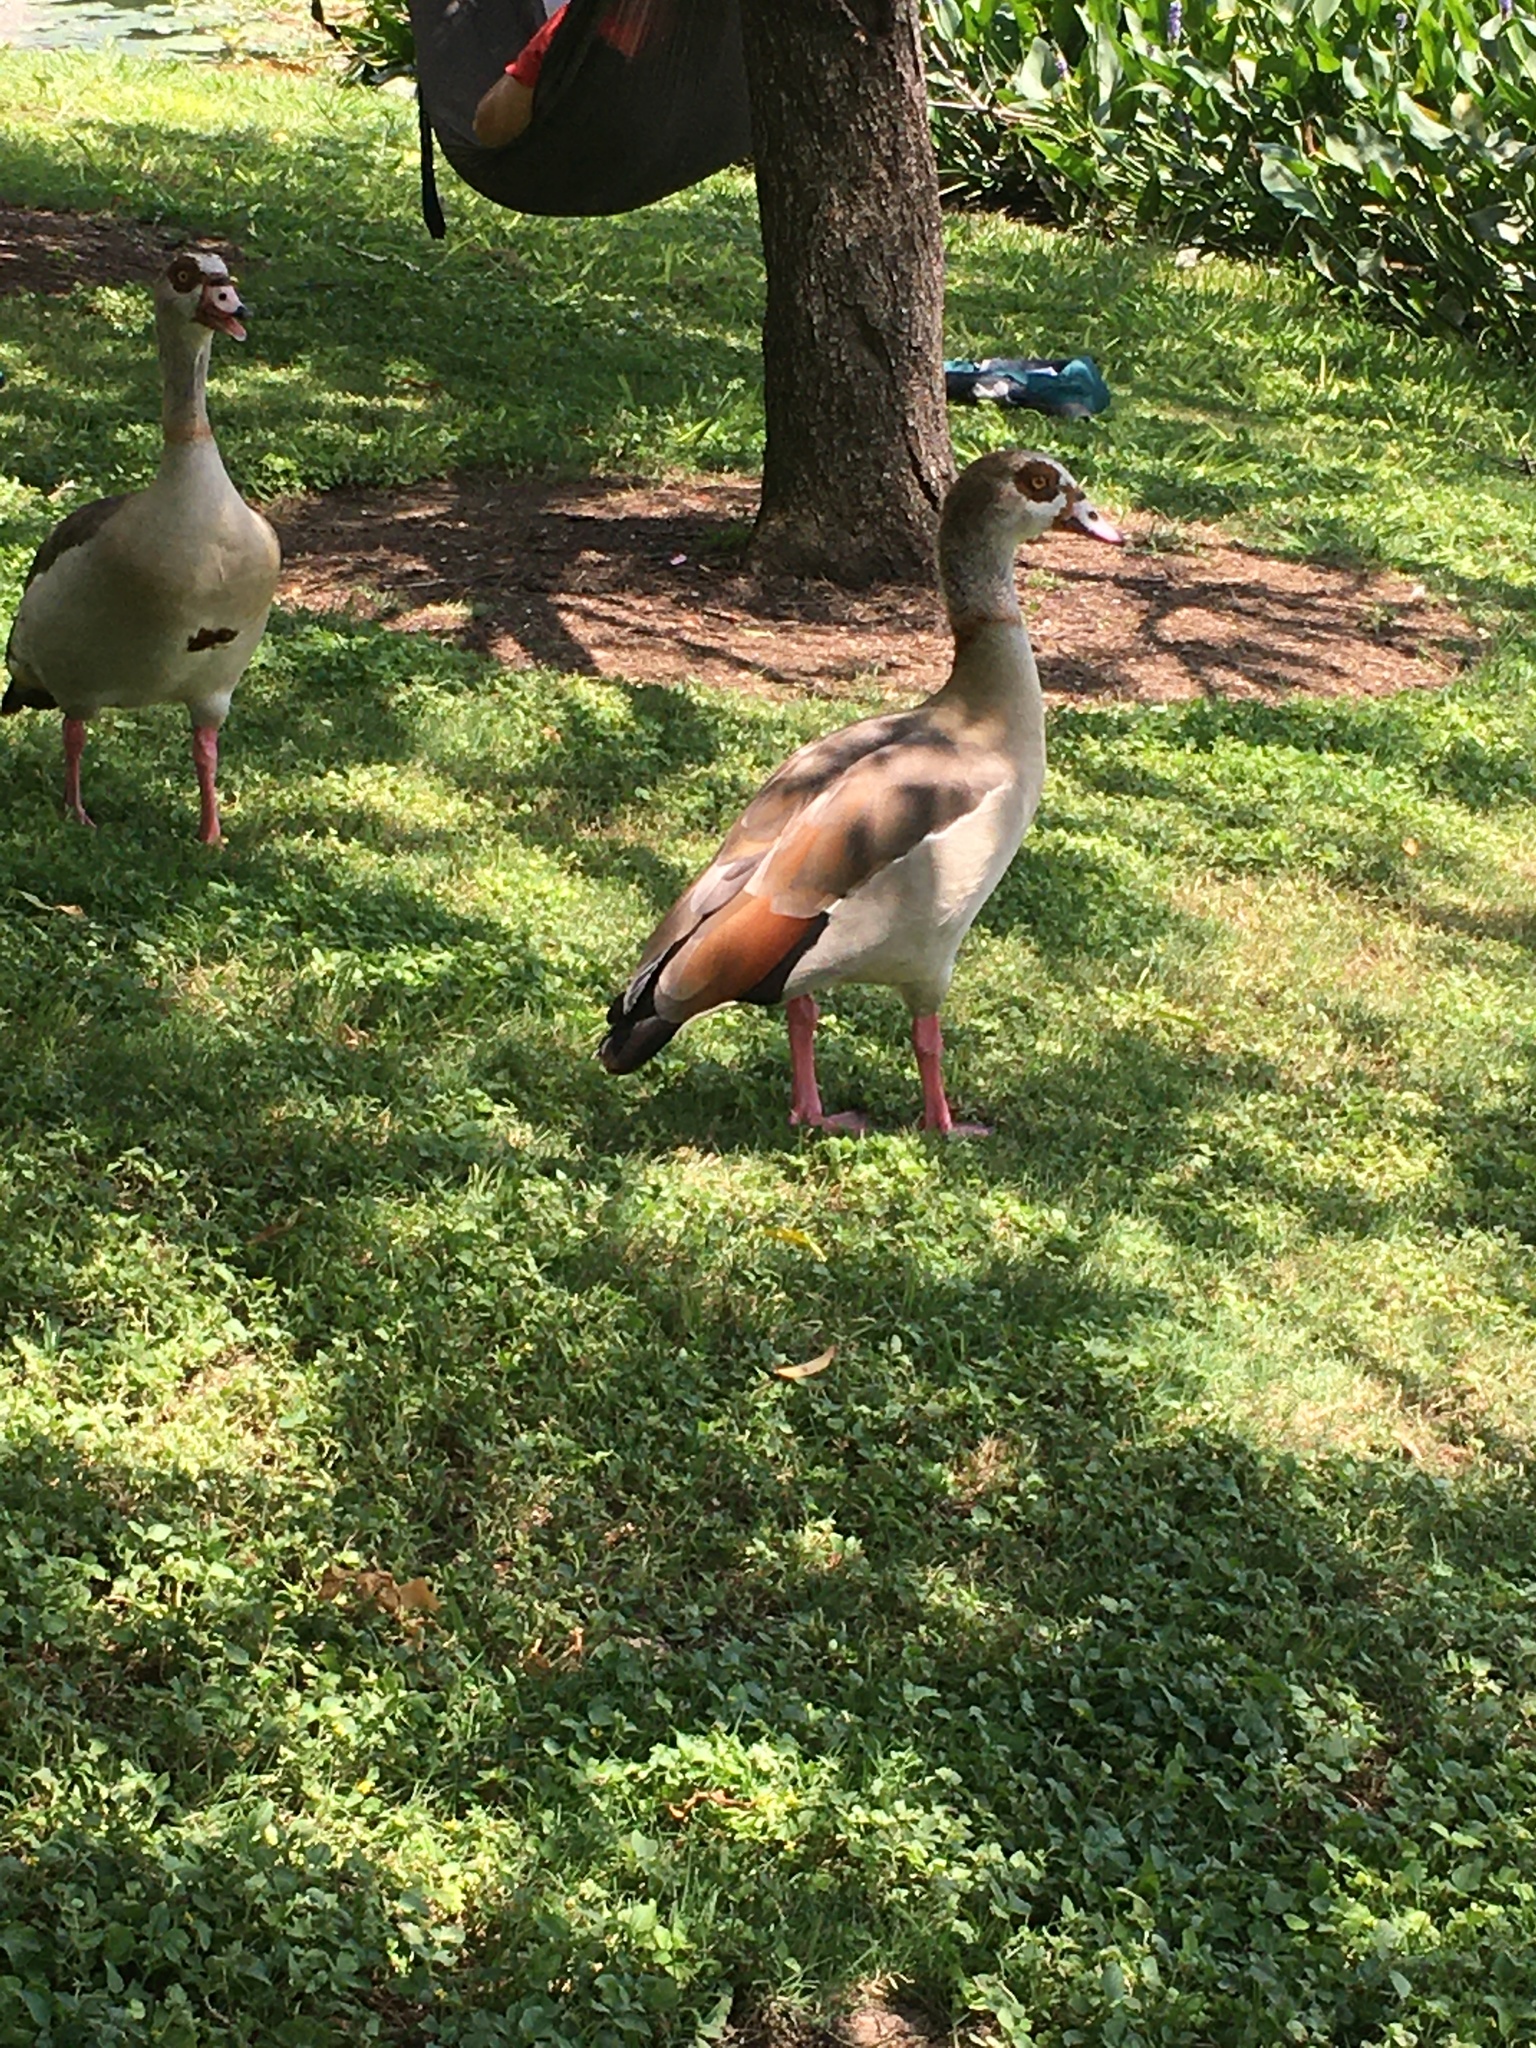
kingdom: Animalia
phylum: Chordata
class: Aves
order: Anseriformes
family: Anatidae
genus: Alopochen
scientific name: Alopochen aegyptiaca
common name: Egyptian goose
